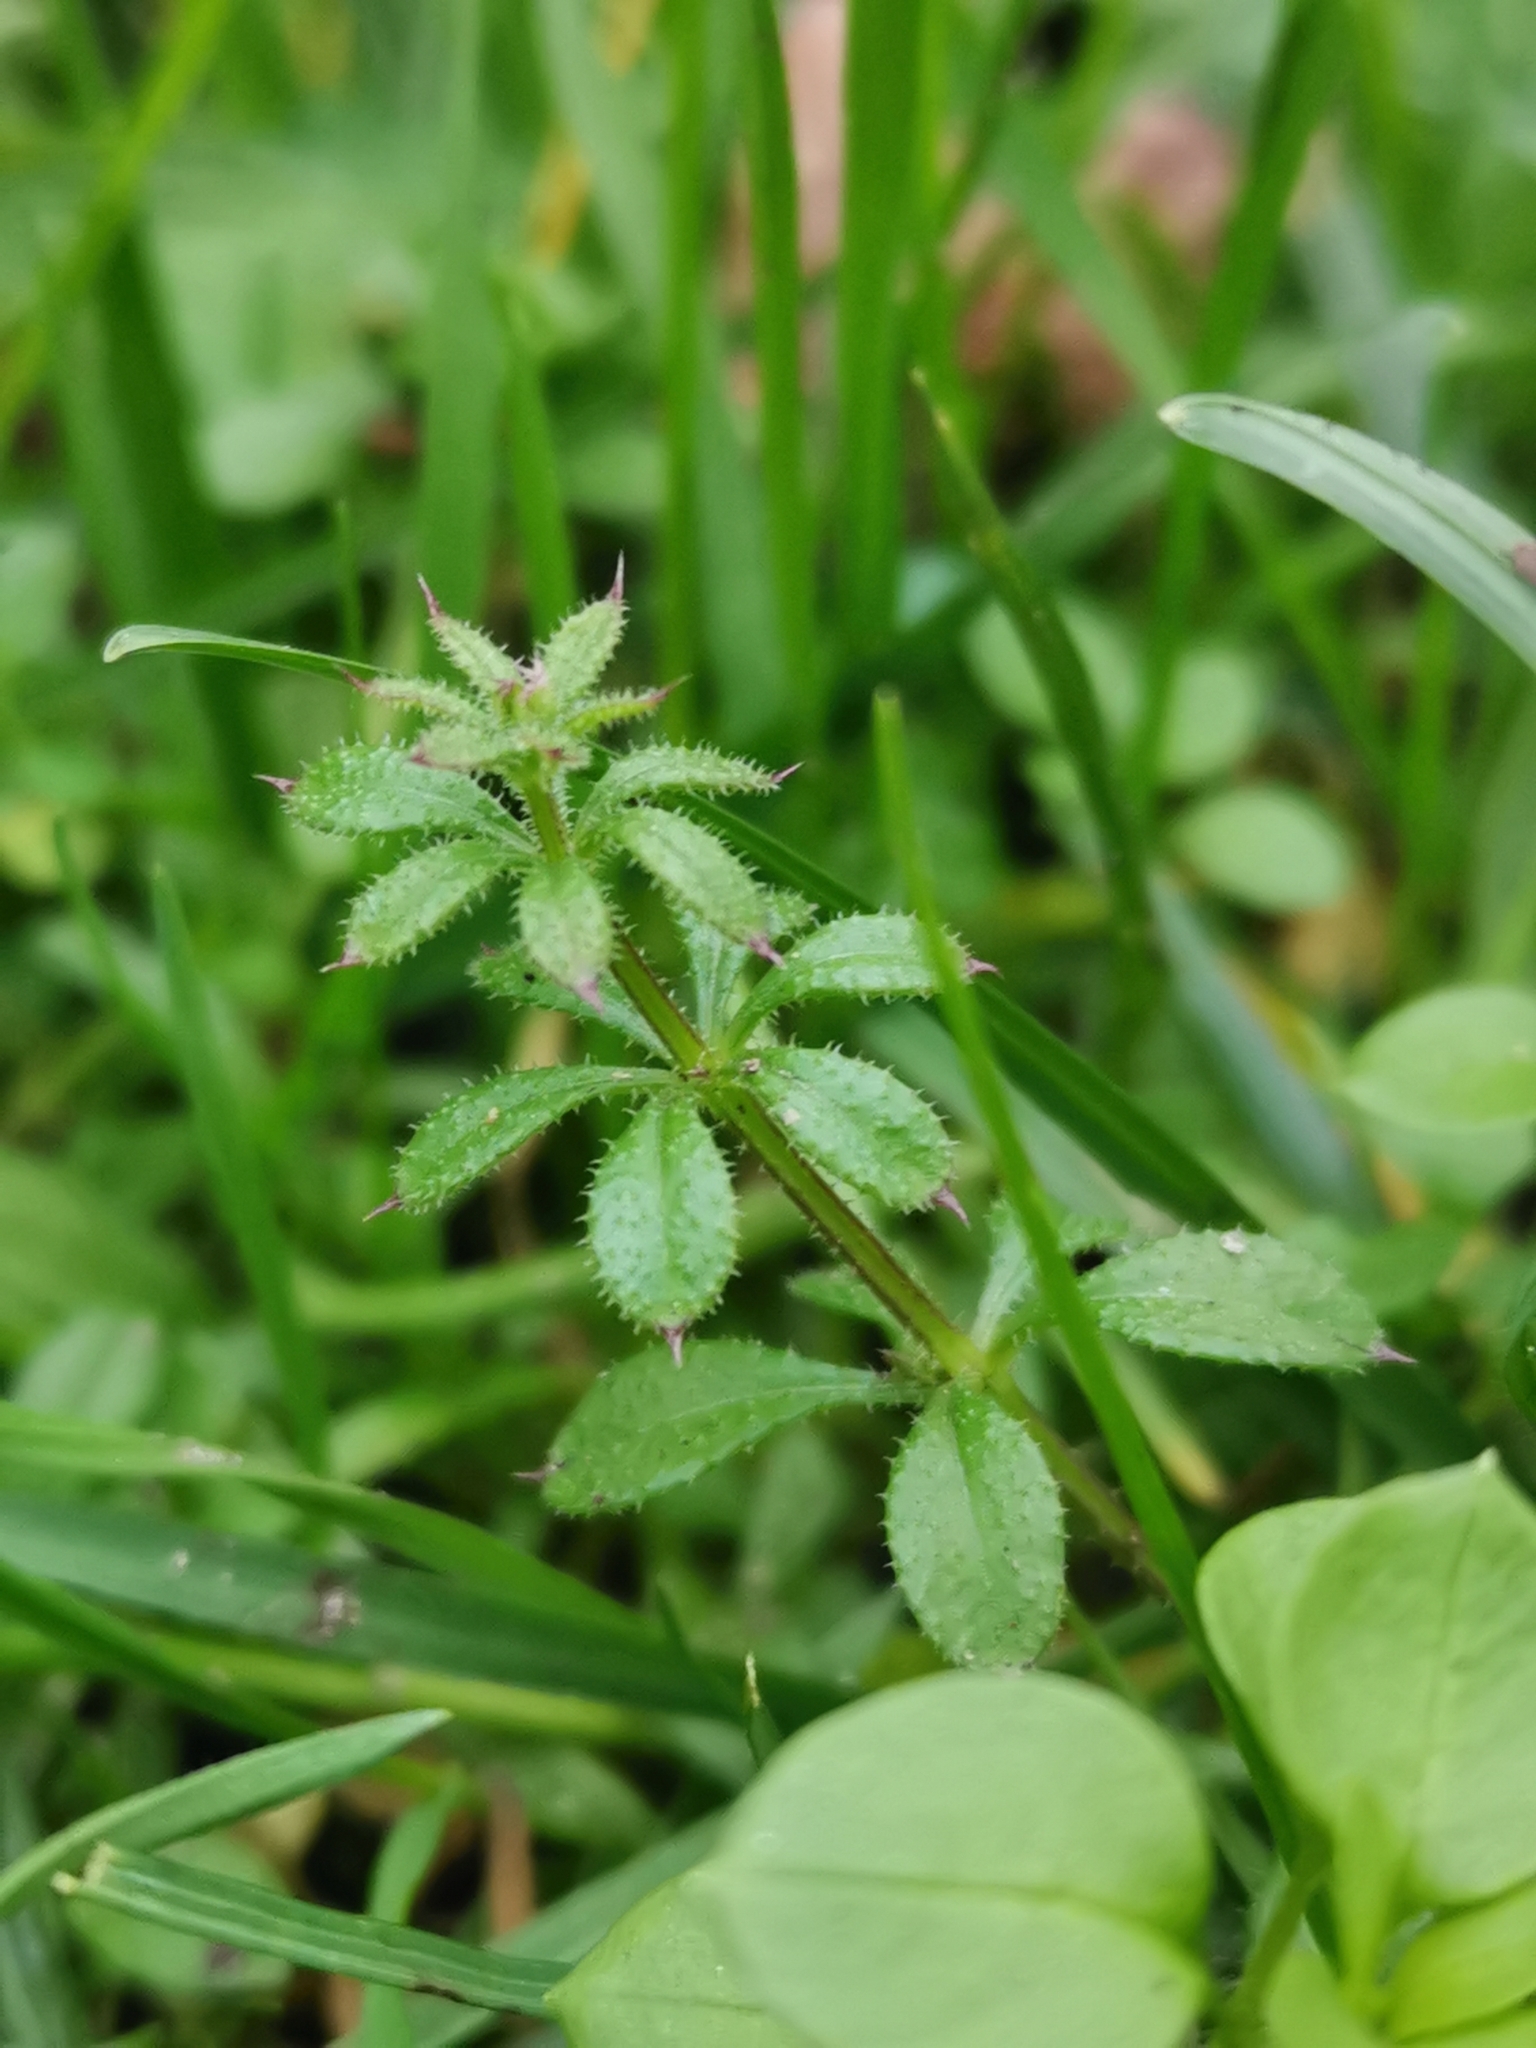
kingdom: Plantae
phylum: Tracheophyta
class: Magnoliopsida
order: Gentianales
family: Rubiaceae
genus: Galium
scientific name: Galium aparine
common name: Cleavers
